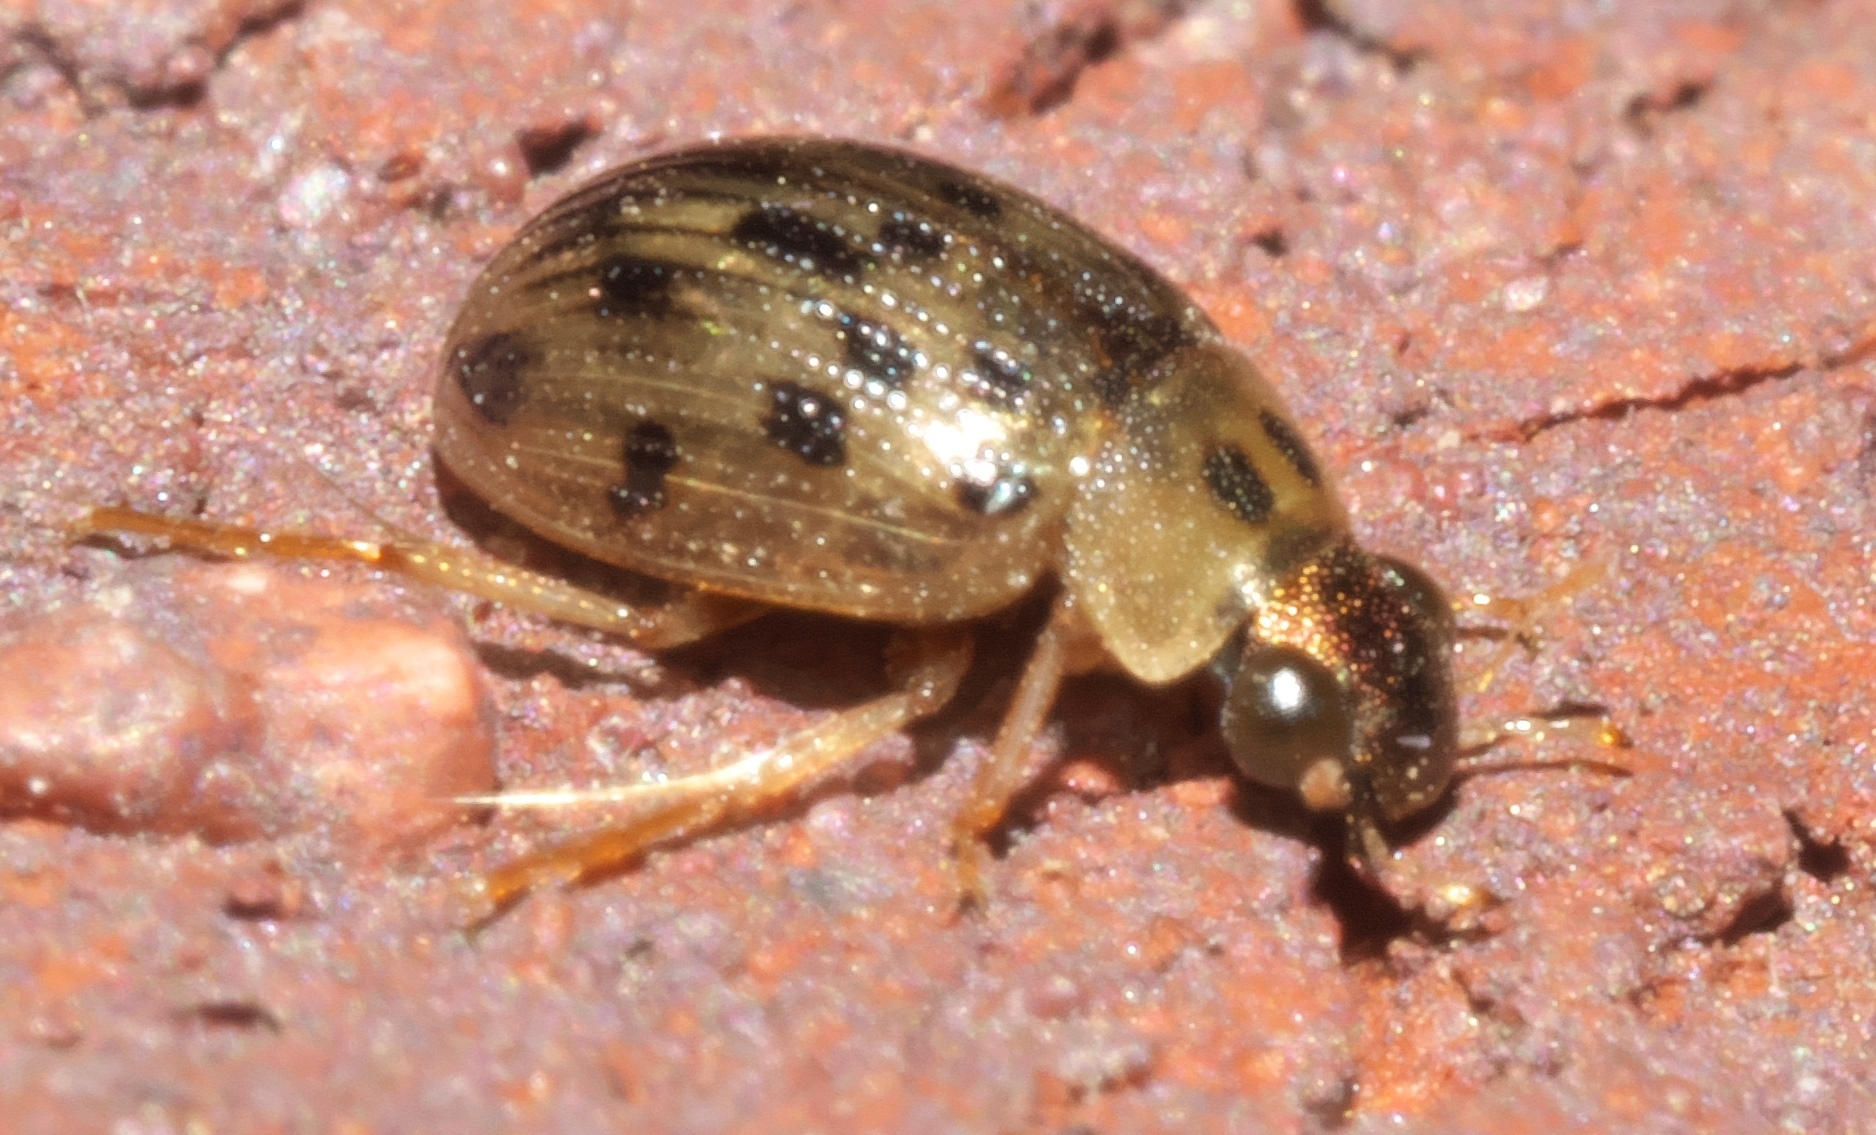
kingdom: Animalia
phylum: Arthropoda
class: Insecta
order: Coleoptera
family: Hydrophilidae
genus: Berosus
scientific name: Berosus pantherinus
